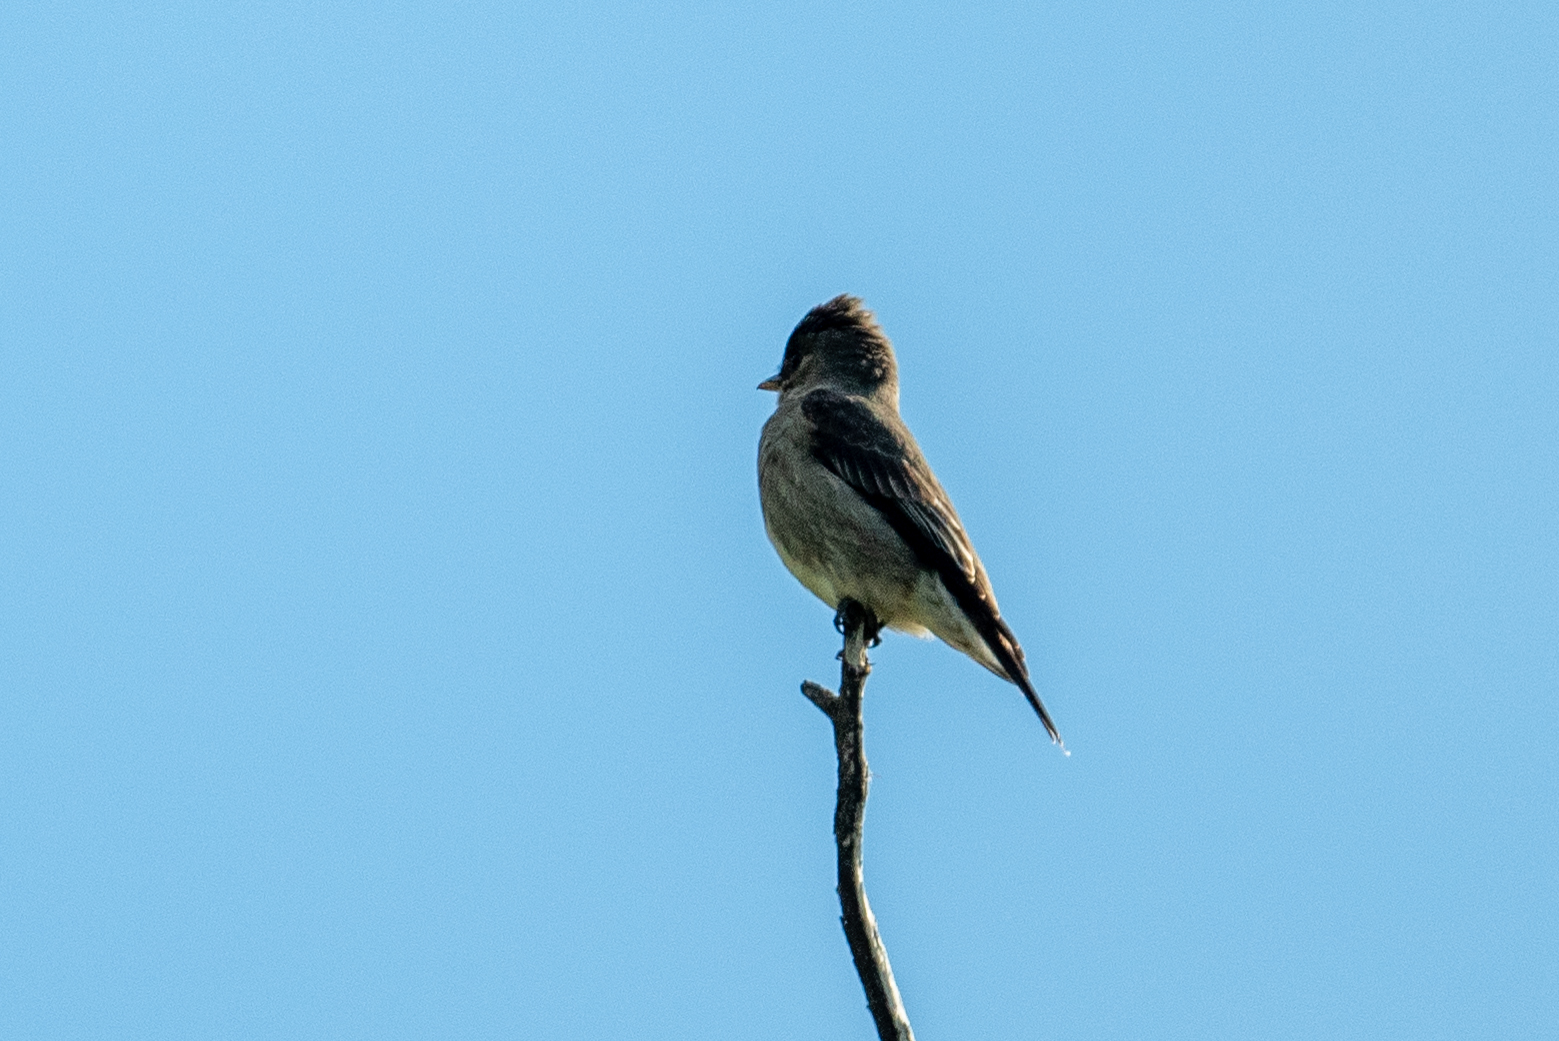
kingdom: Animalia
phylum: Chordata
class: Aves
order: Passeriformes
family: Tyrannidae
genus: Contopus
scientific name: Contopus cooperi
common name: Olive-sided flycatcher
